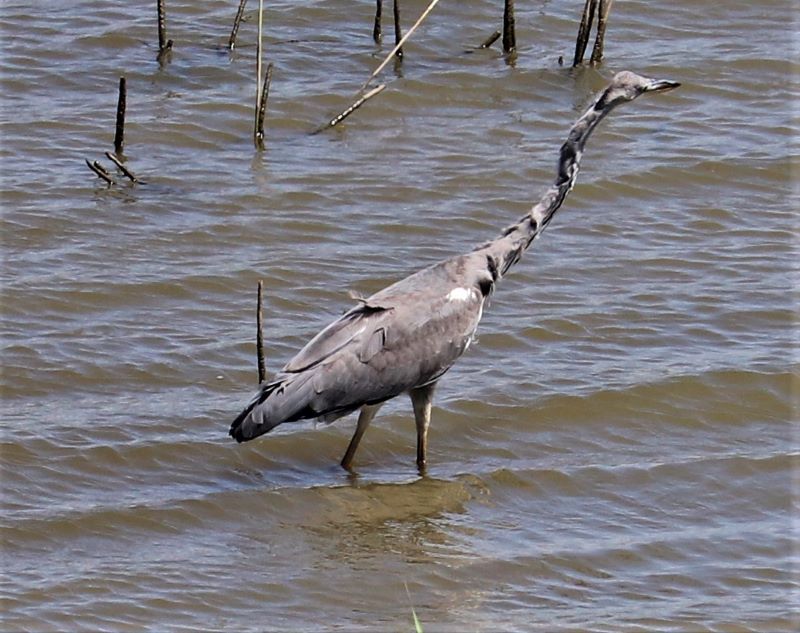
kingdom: Animalia
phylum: Chordata
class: Aves
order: Pelecaniformes
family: Ardeidae
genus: Ardea
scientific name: Ardea cinerea
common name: Grey heron
